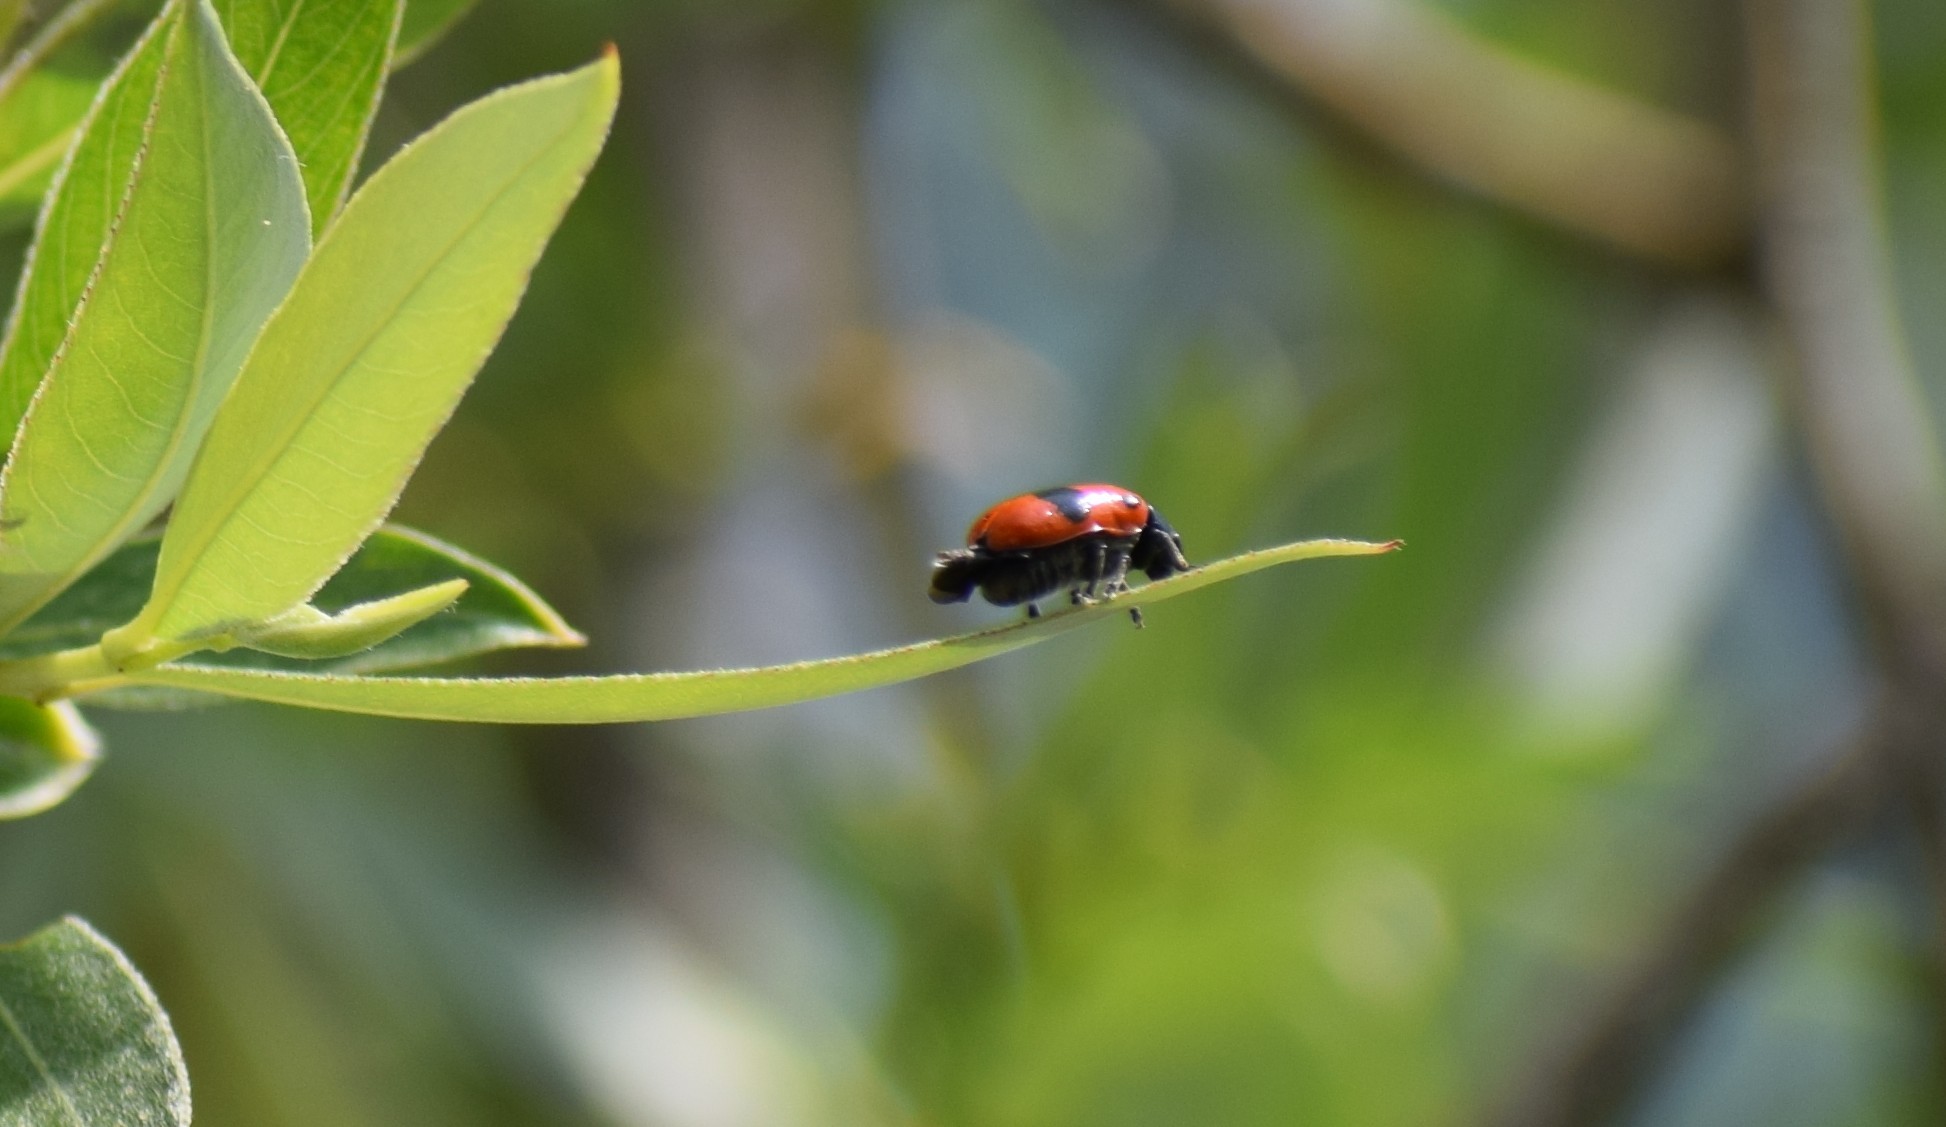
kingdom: Animalia
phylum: Arthropoda
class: Insecta
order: Coleoptera
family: Chrysomelidae
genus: Clytra
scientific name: Clytra laeviuscula
